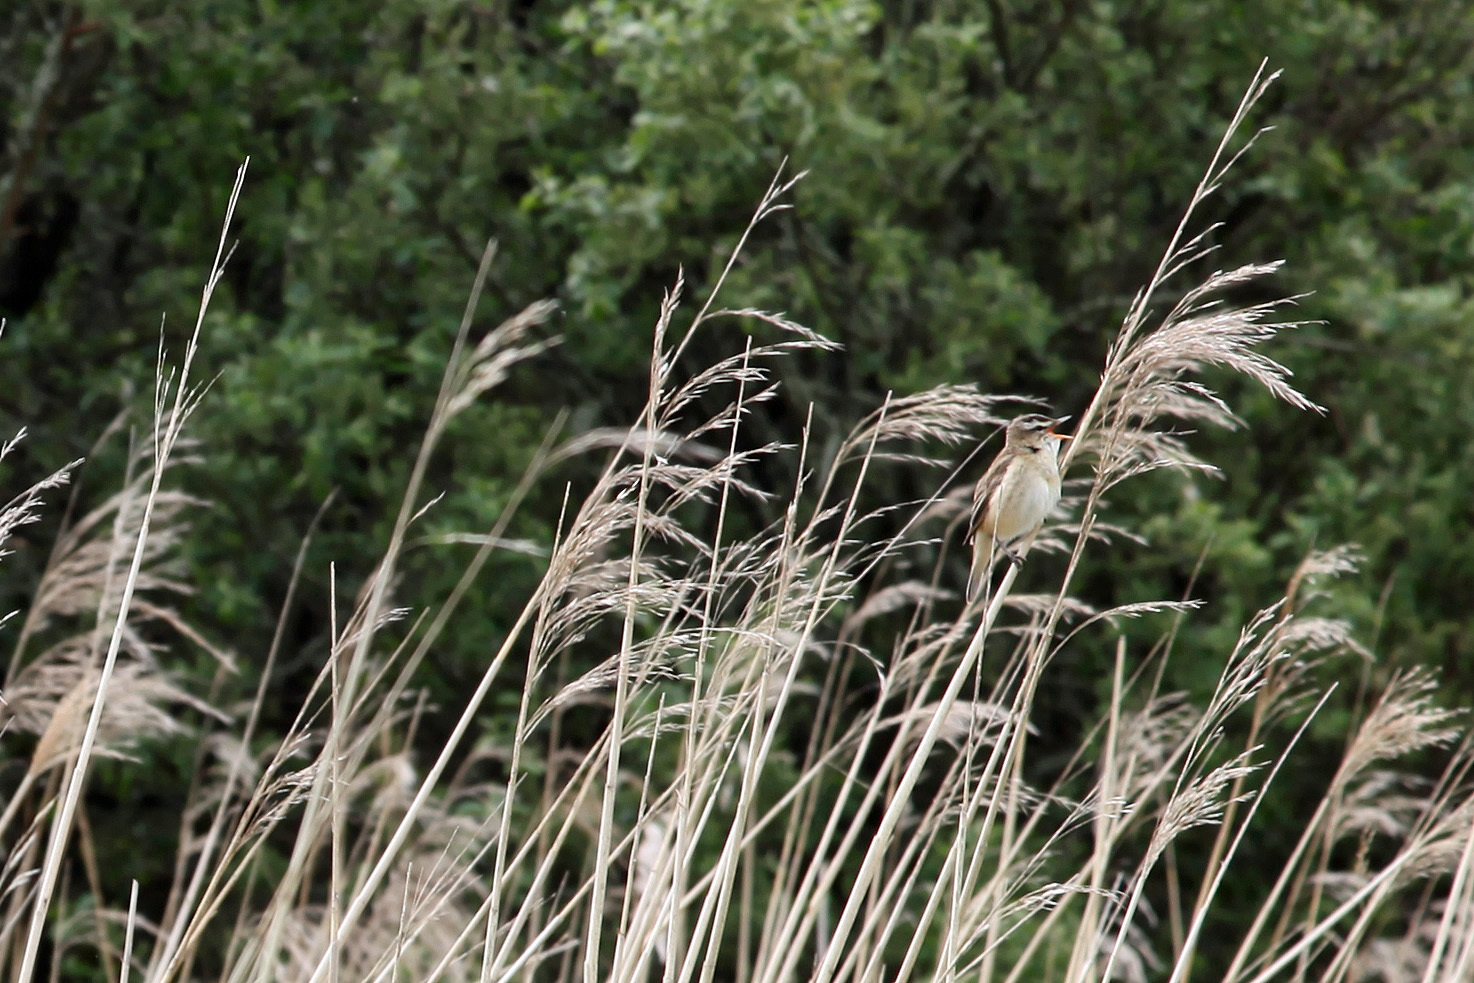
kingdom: Animalia
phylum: Chordata
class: Aves
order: Passeriformes
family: Acrocephalidae
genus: Acrocephalus
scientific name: Acrocephalus schoenobaenus
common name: Sedge warbler
